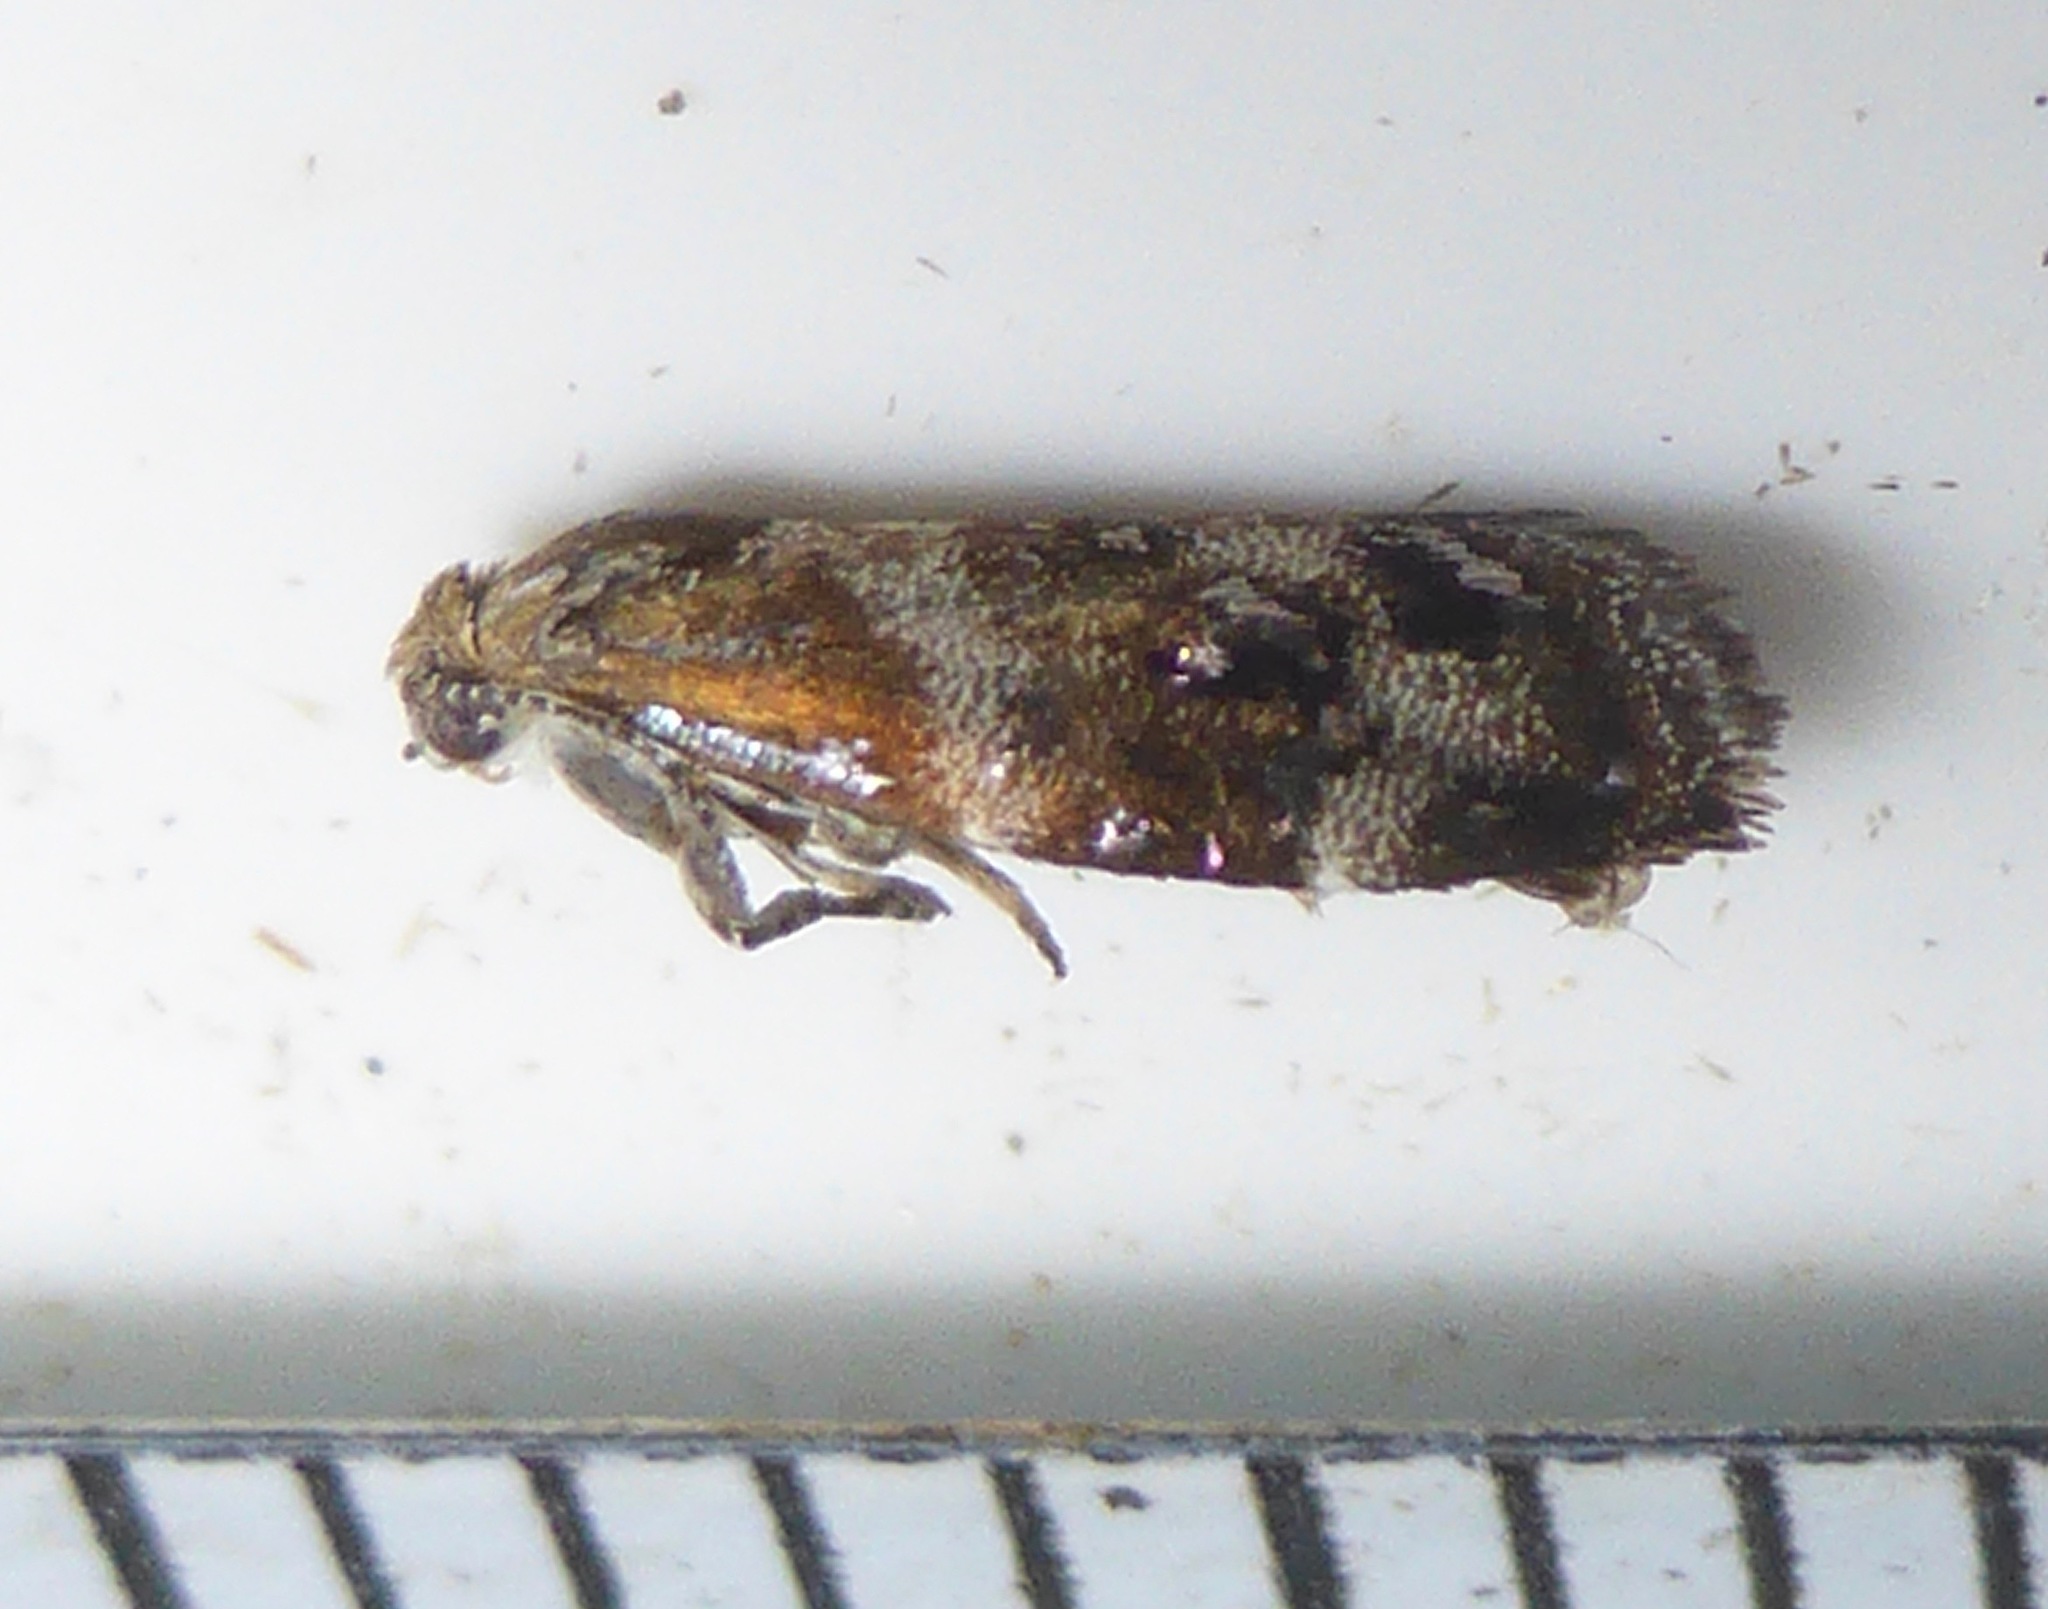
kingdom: Animalia
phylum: Arthropoda
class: Insecta
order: Lepidoptera
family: Choreutidae
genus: Tebenna
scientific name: Tebenna micalis
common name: Vagrant twitcher
